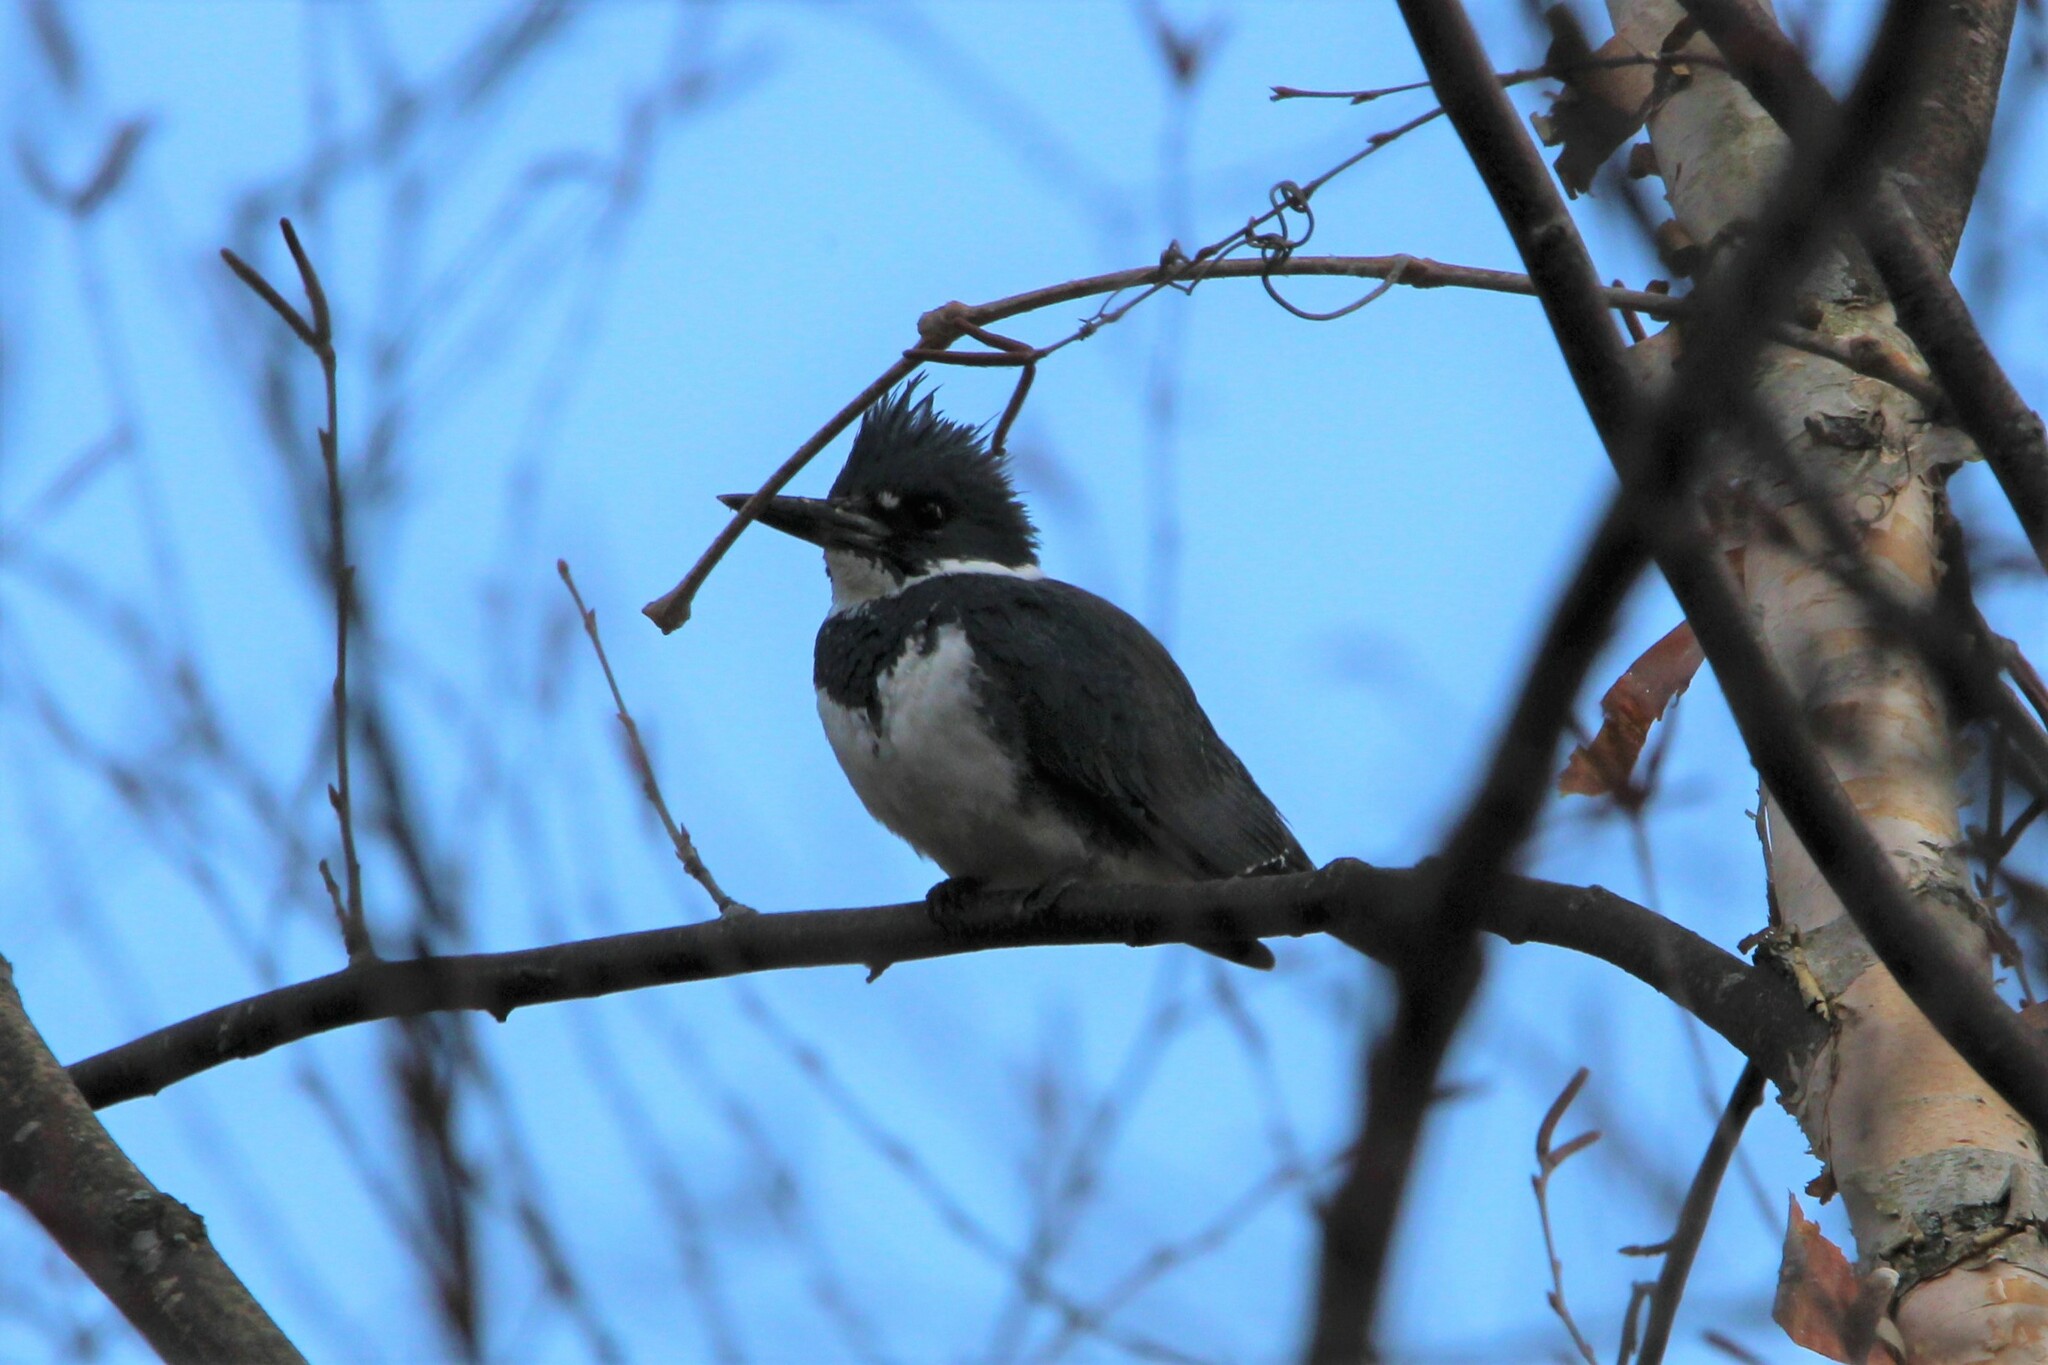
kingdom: Animalia
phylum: Chordata
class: Aves
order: Coraciiformes
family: Alcedinidae
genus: Megaceryle
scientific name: Megaceryle alcyon
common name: Belted kingfisher
